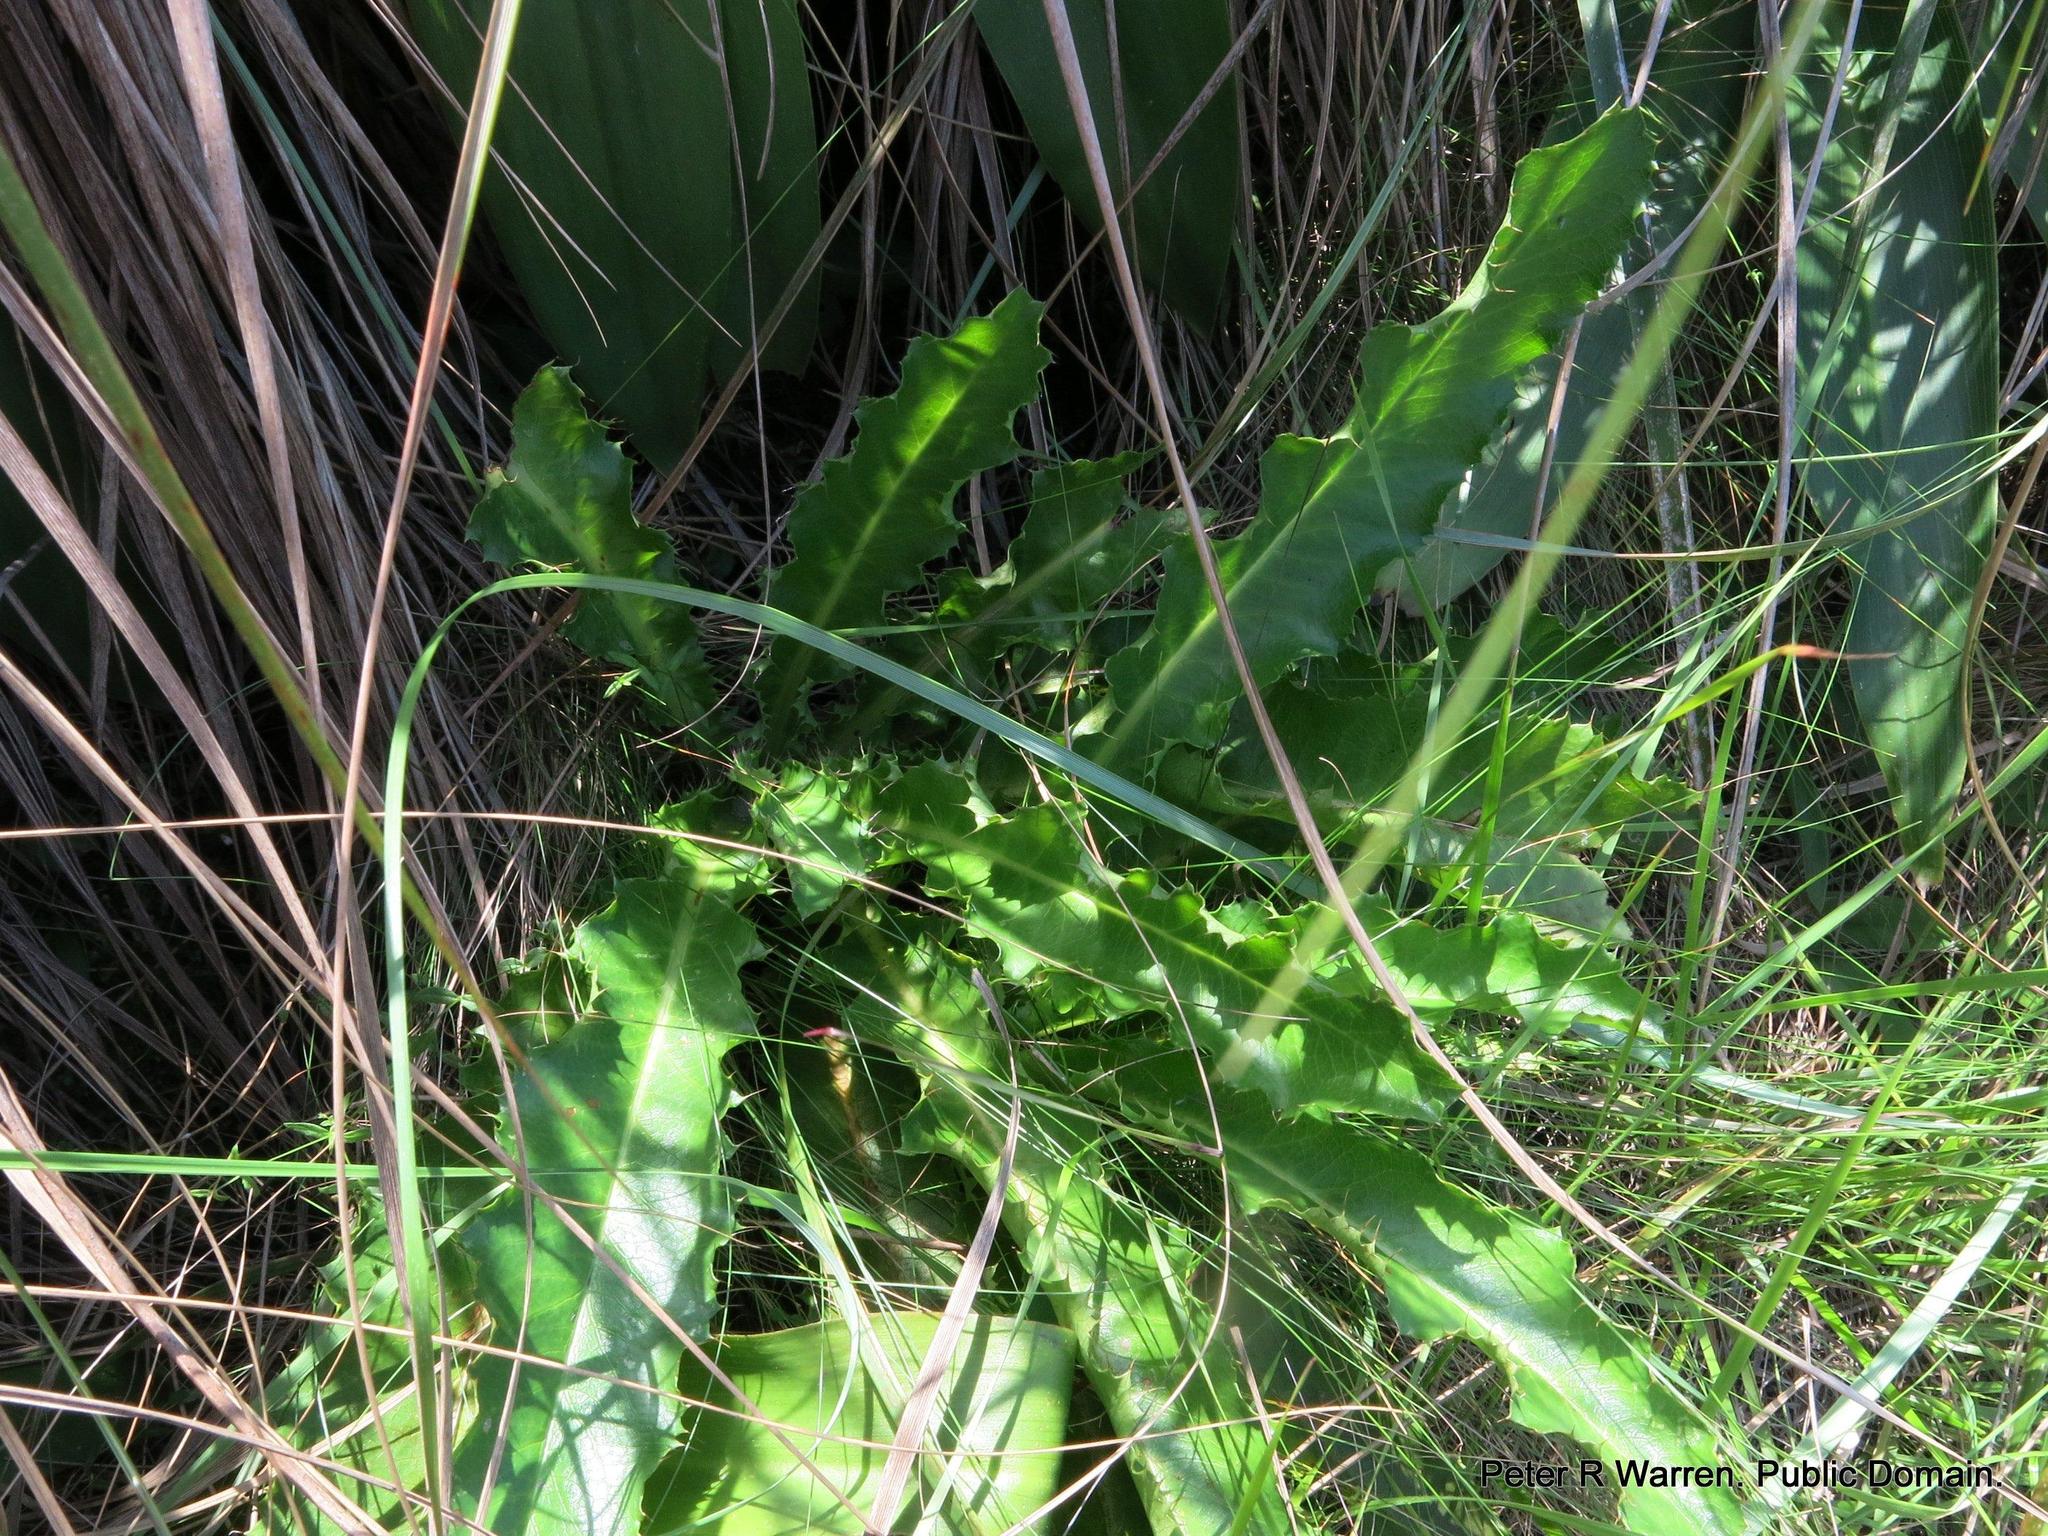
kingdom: Plantae
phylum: Tracheophyta
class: Magnoliopsida
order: Apiales
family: Apiaceae
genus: Alepidea
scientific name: Alepidea amatymbica
